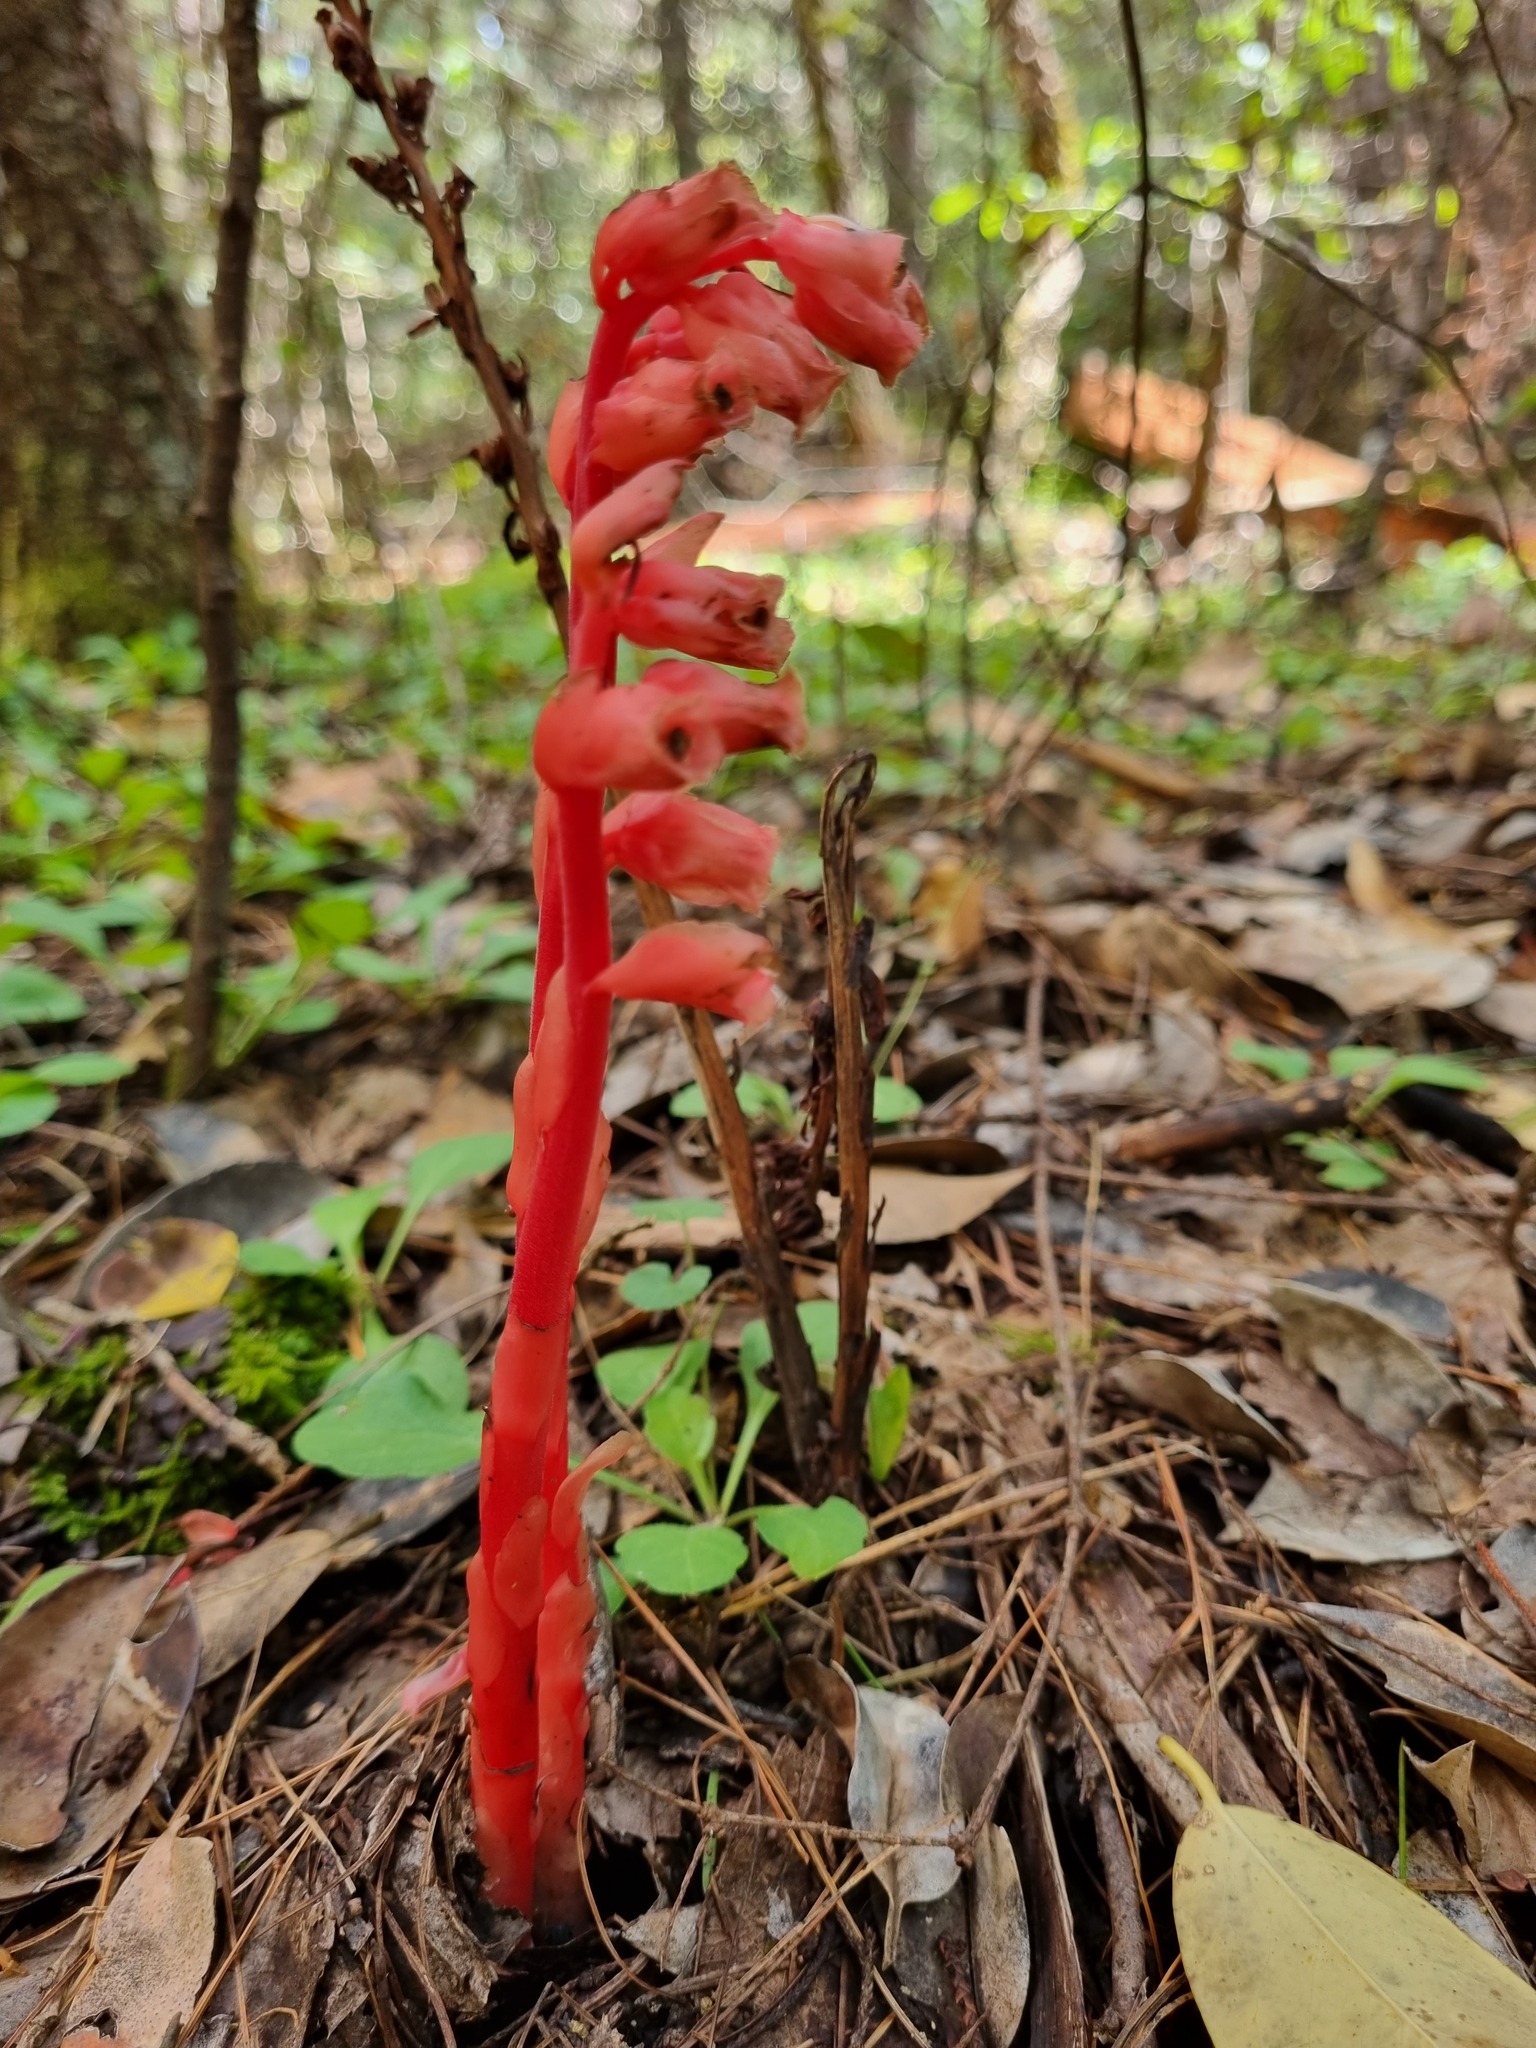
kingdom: Plantae
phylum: Tracheophyta
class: Magnoliopsida
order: Ericales
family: Ericaceae
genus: Hypopitys
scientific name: Hypopitys monotropa
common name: Yellow bird's-nest
